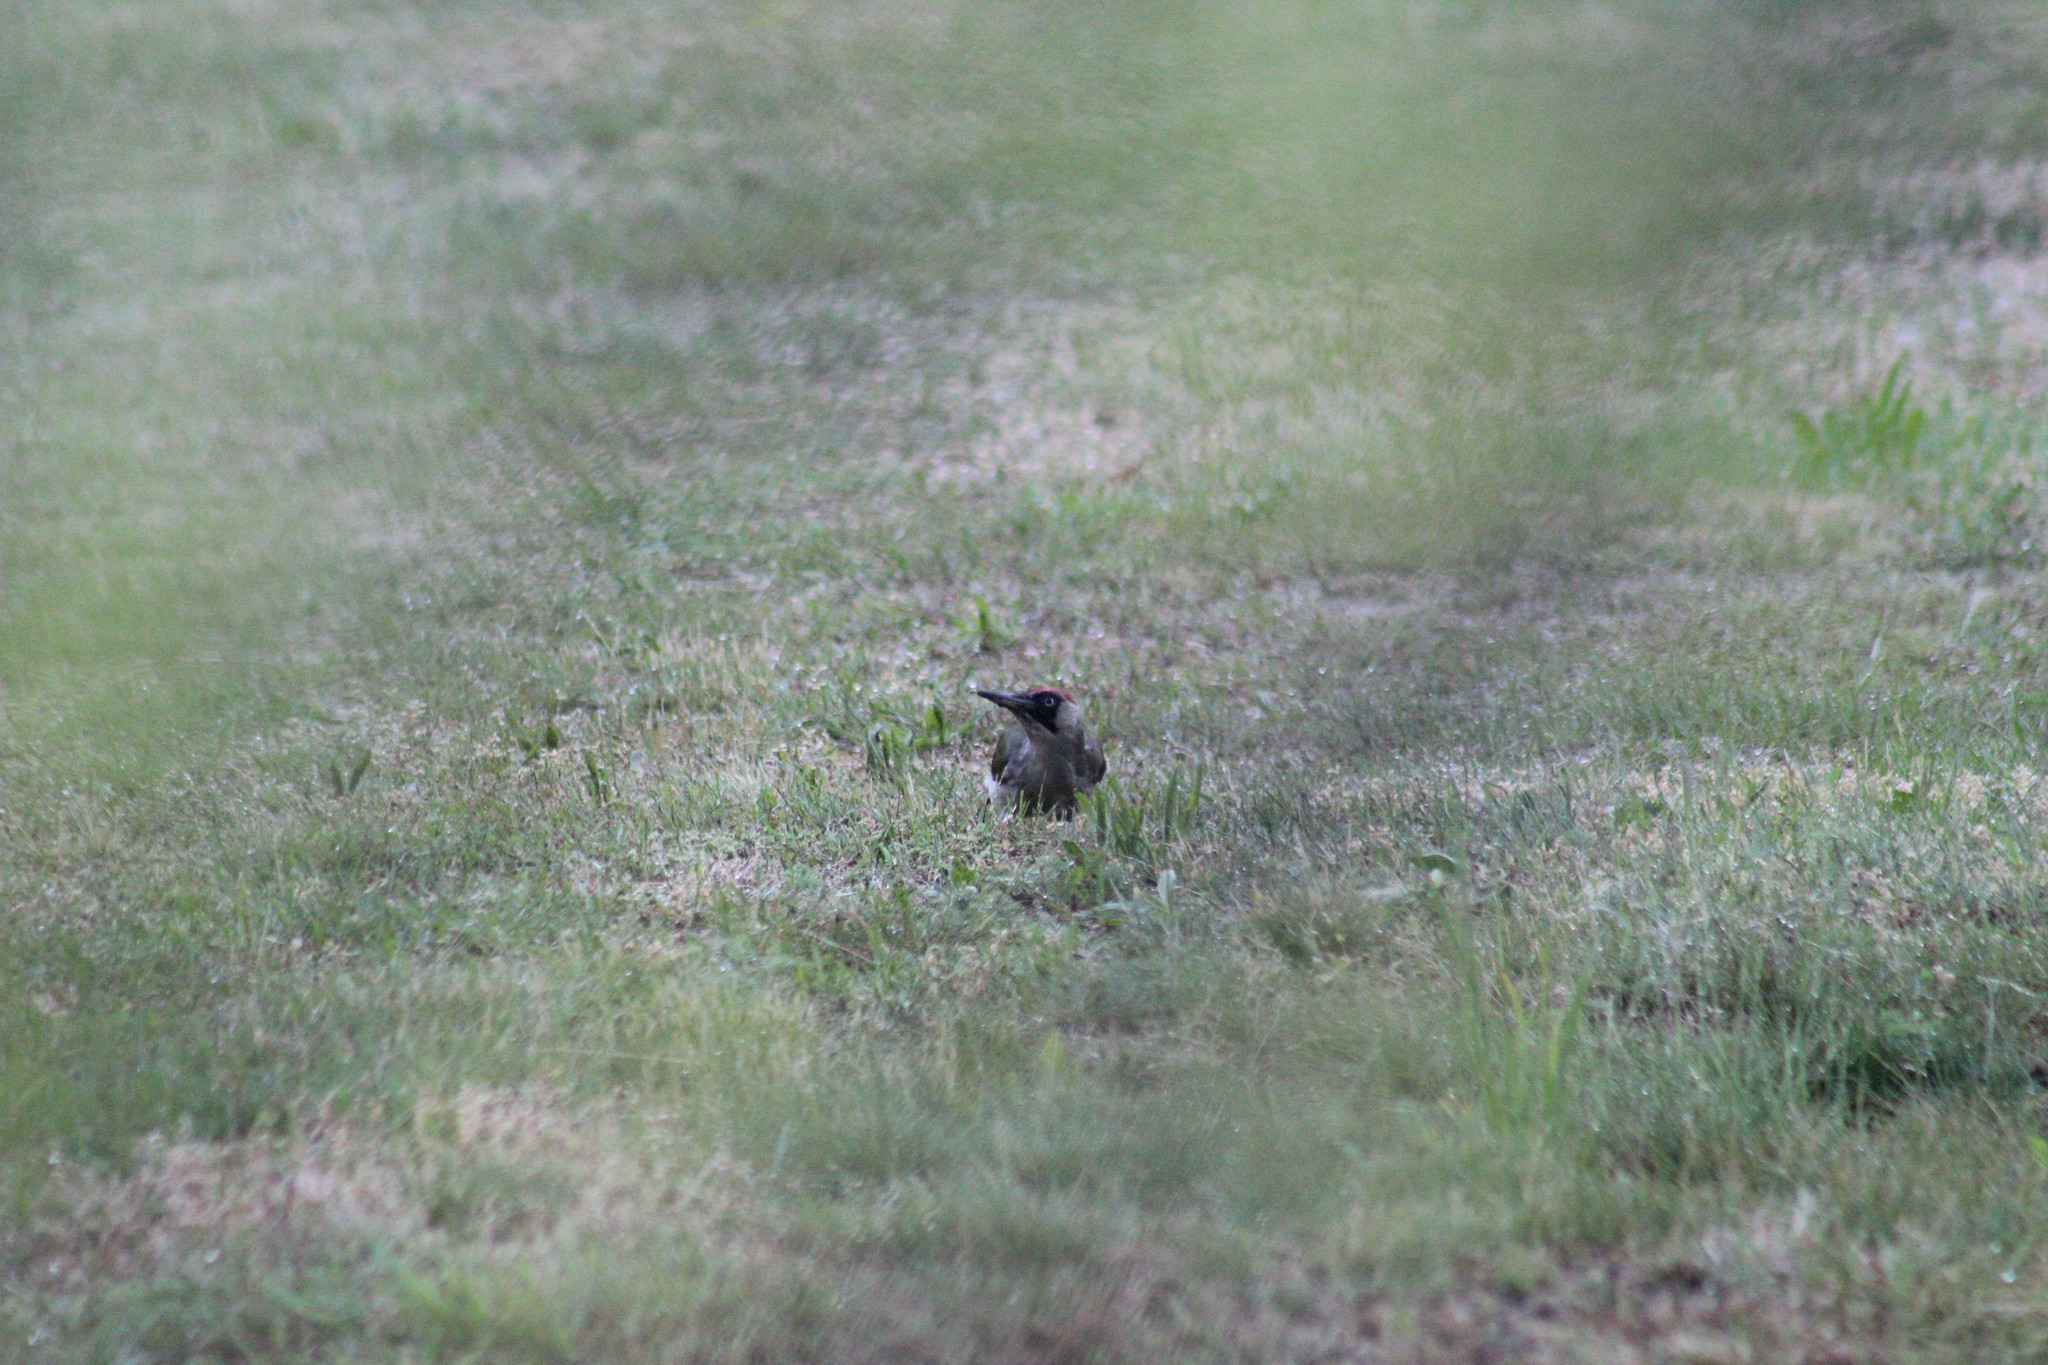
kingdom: Animalia
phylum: Chordata
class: Aves
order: Piciformes
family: Picidae
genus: Picus
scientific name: Picus viridis
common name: European green woodpecker
